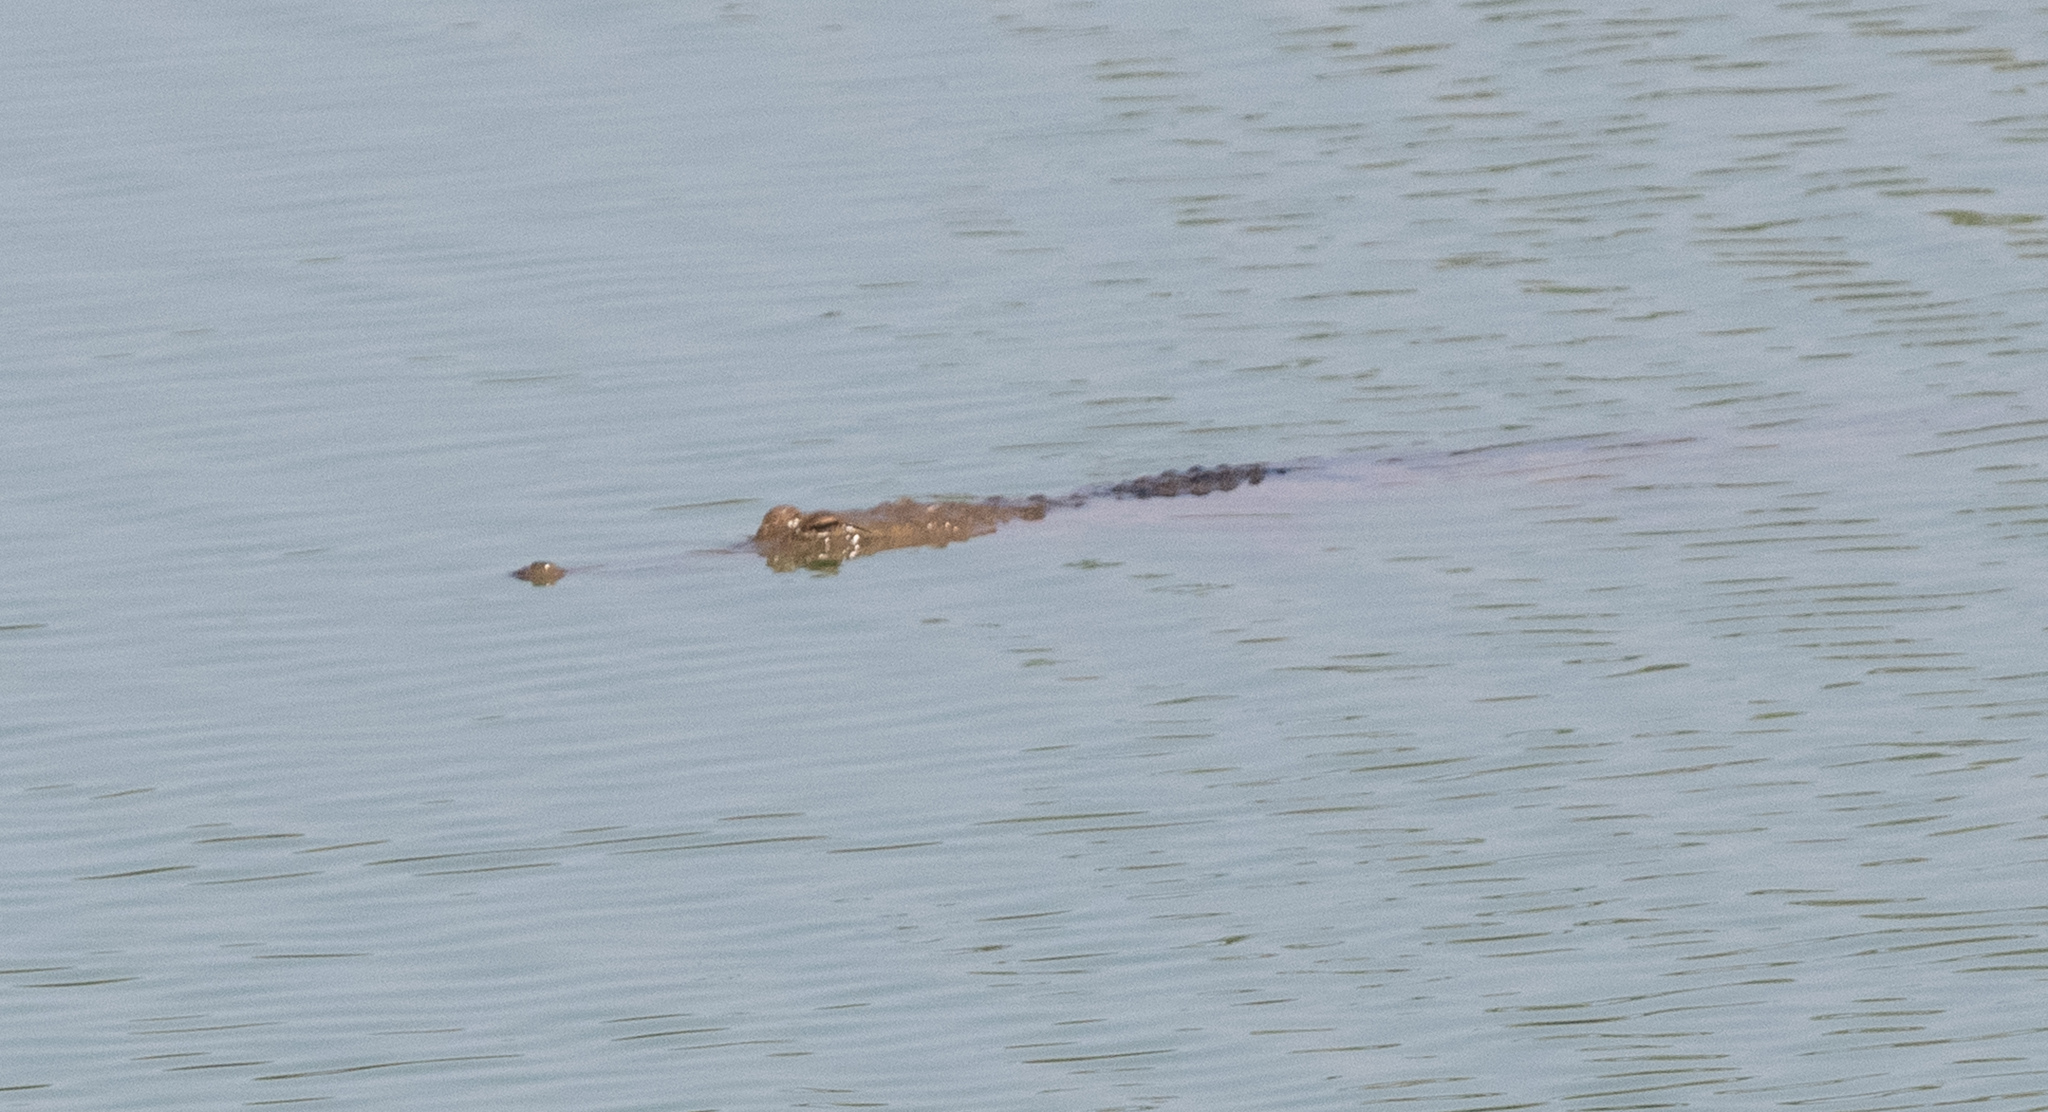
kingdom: Animalia
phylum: Chordata
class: Crocodylia
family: Crocodylidae
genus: Crocodylus
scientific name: Crocodylus johnsoni
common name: Freshwater crocodile
